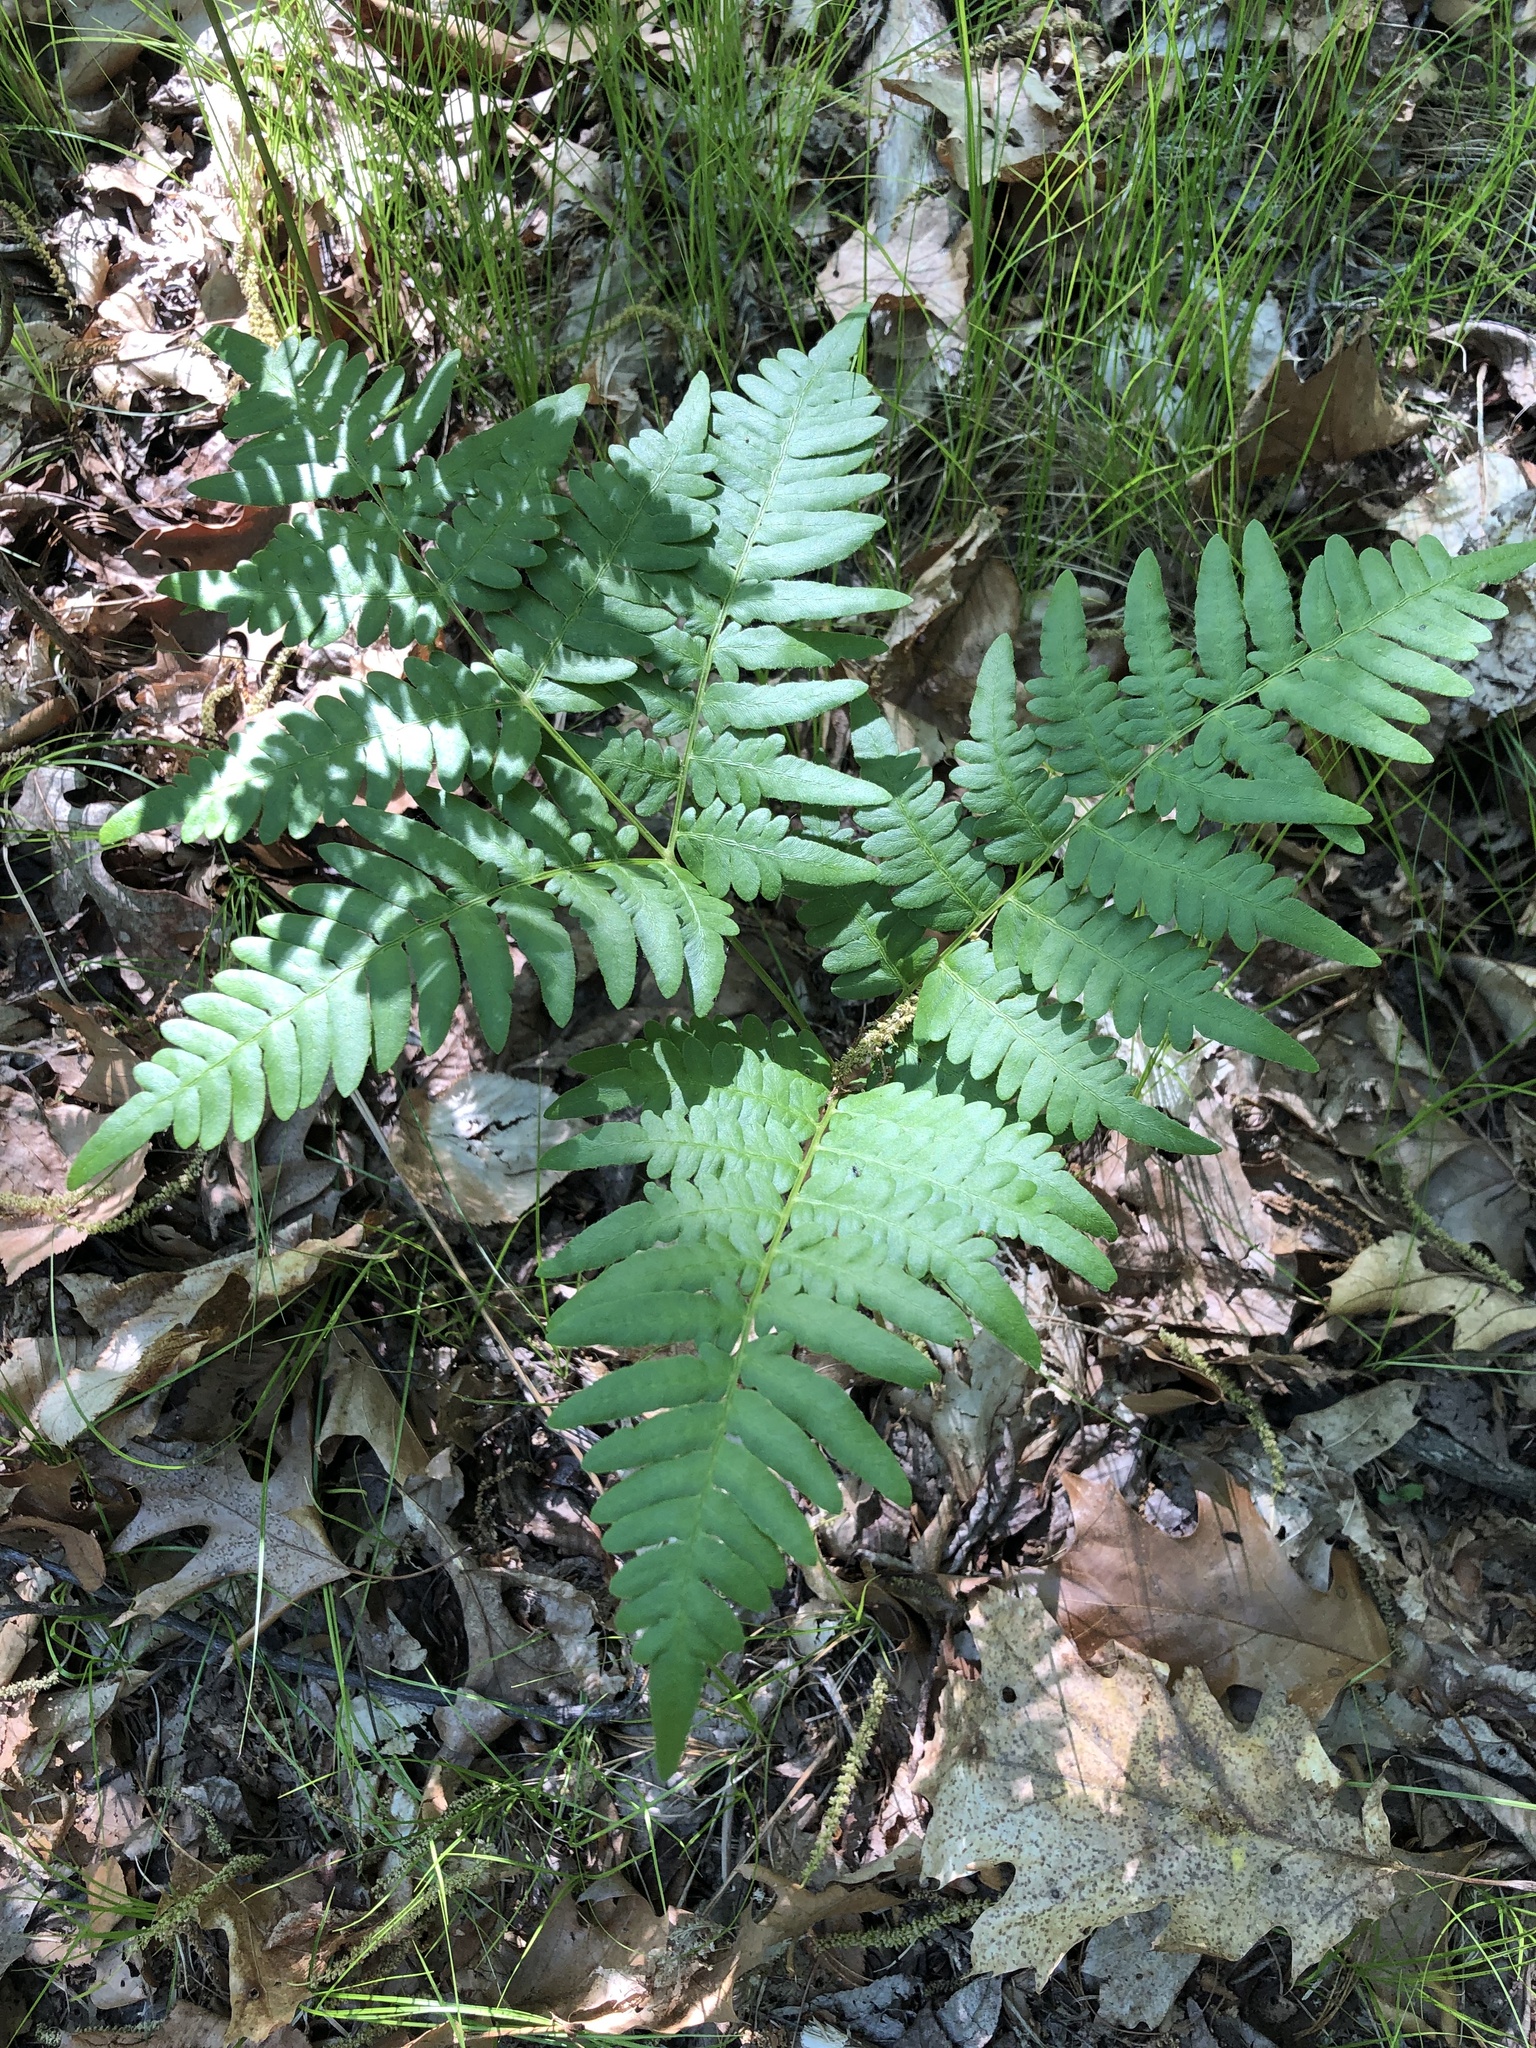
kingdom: Plantae
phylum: Tracheophyta
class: Polypodiopsida
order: Polypodiales
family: Dennstaedtiaceae
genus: Pteridium
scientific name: Pteridium aquilinum
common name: Bracken
